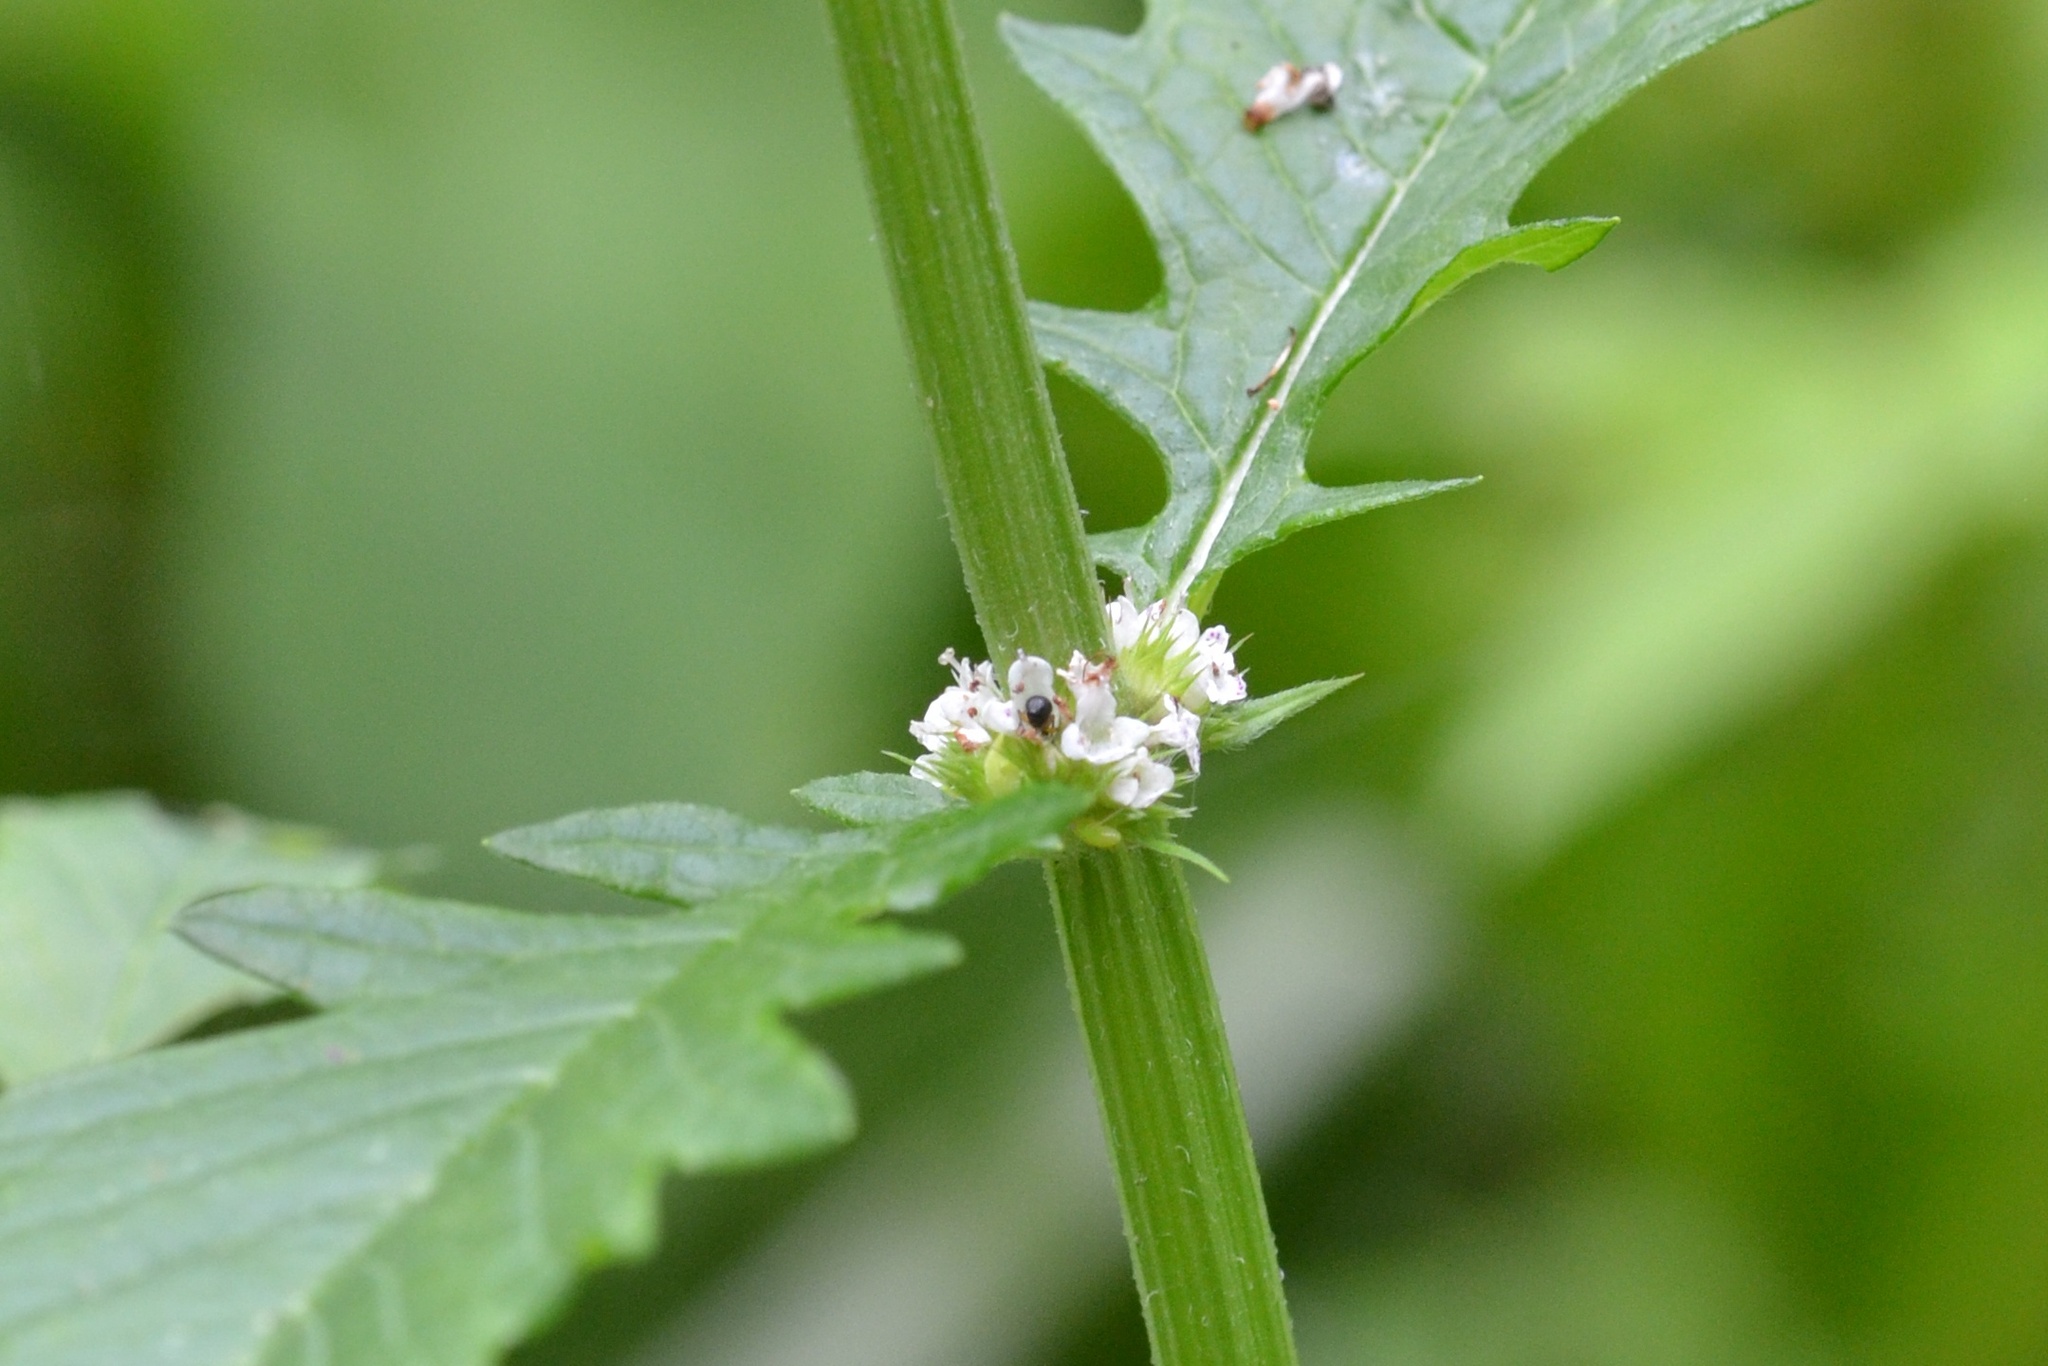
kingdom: Plantae
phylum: Tracheophyta
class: Magnoliopsida
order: Lamiales
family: Lamiaceae
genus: Lycopus
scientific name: Lycopus europaeus
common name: European bugleweed
